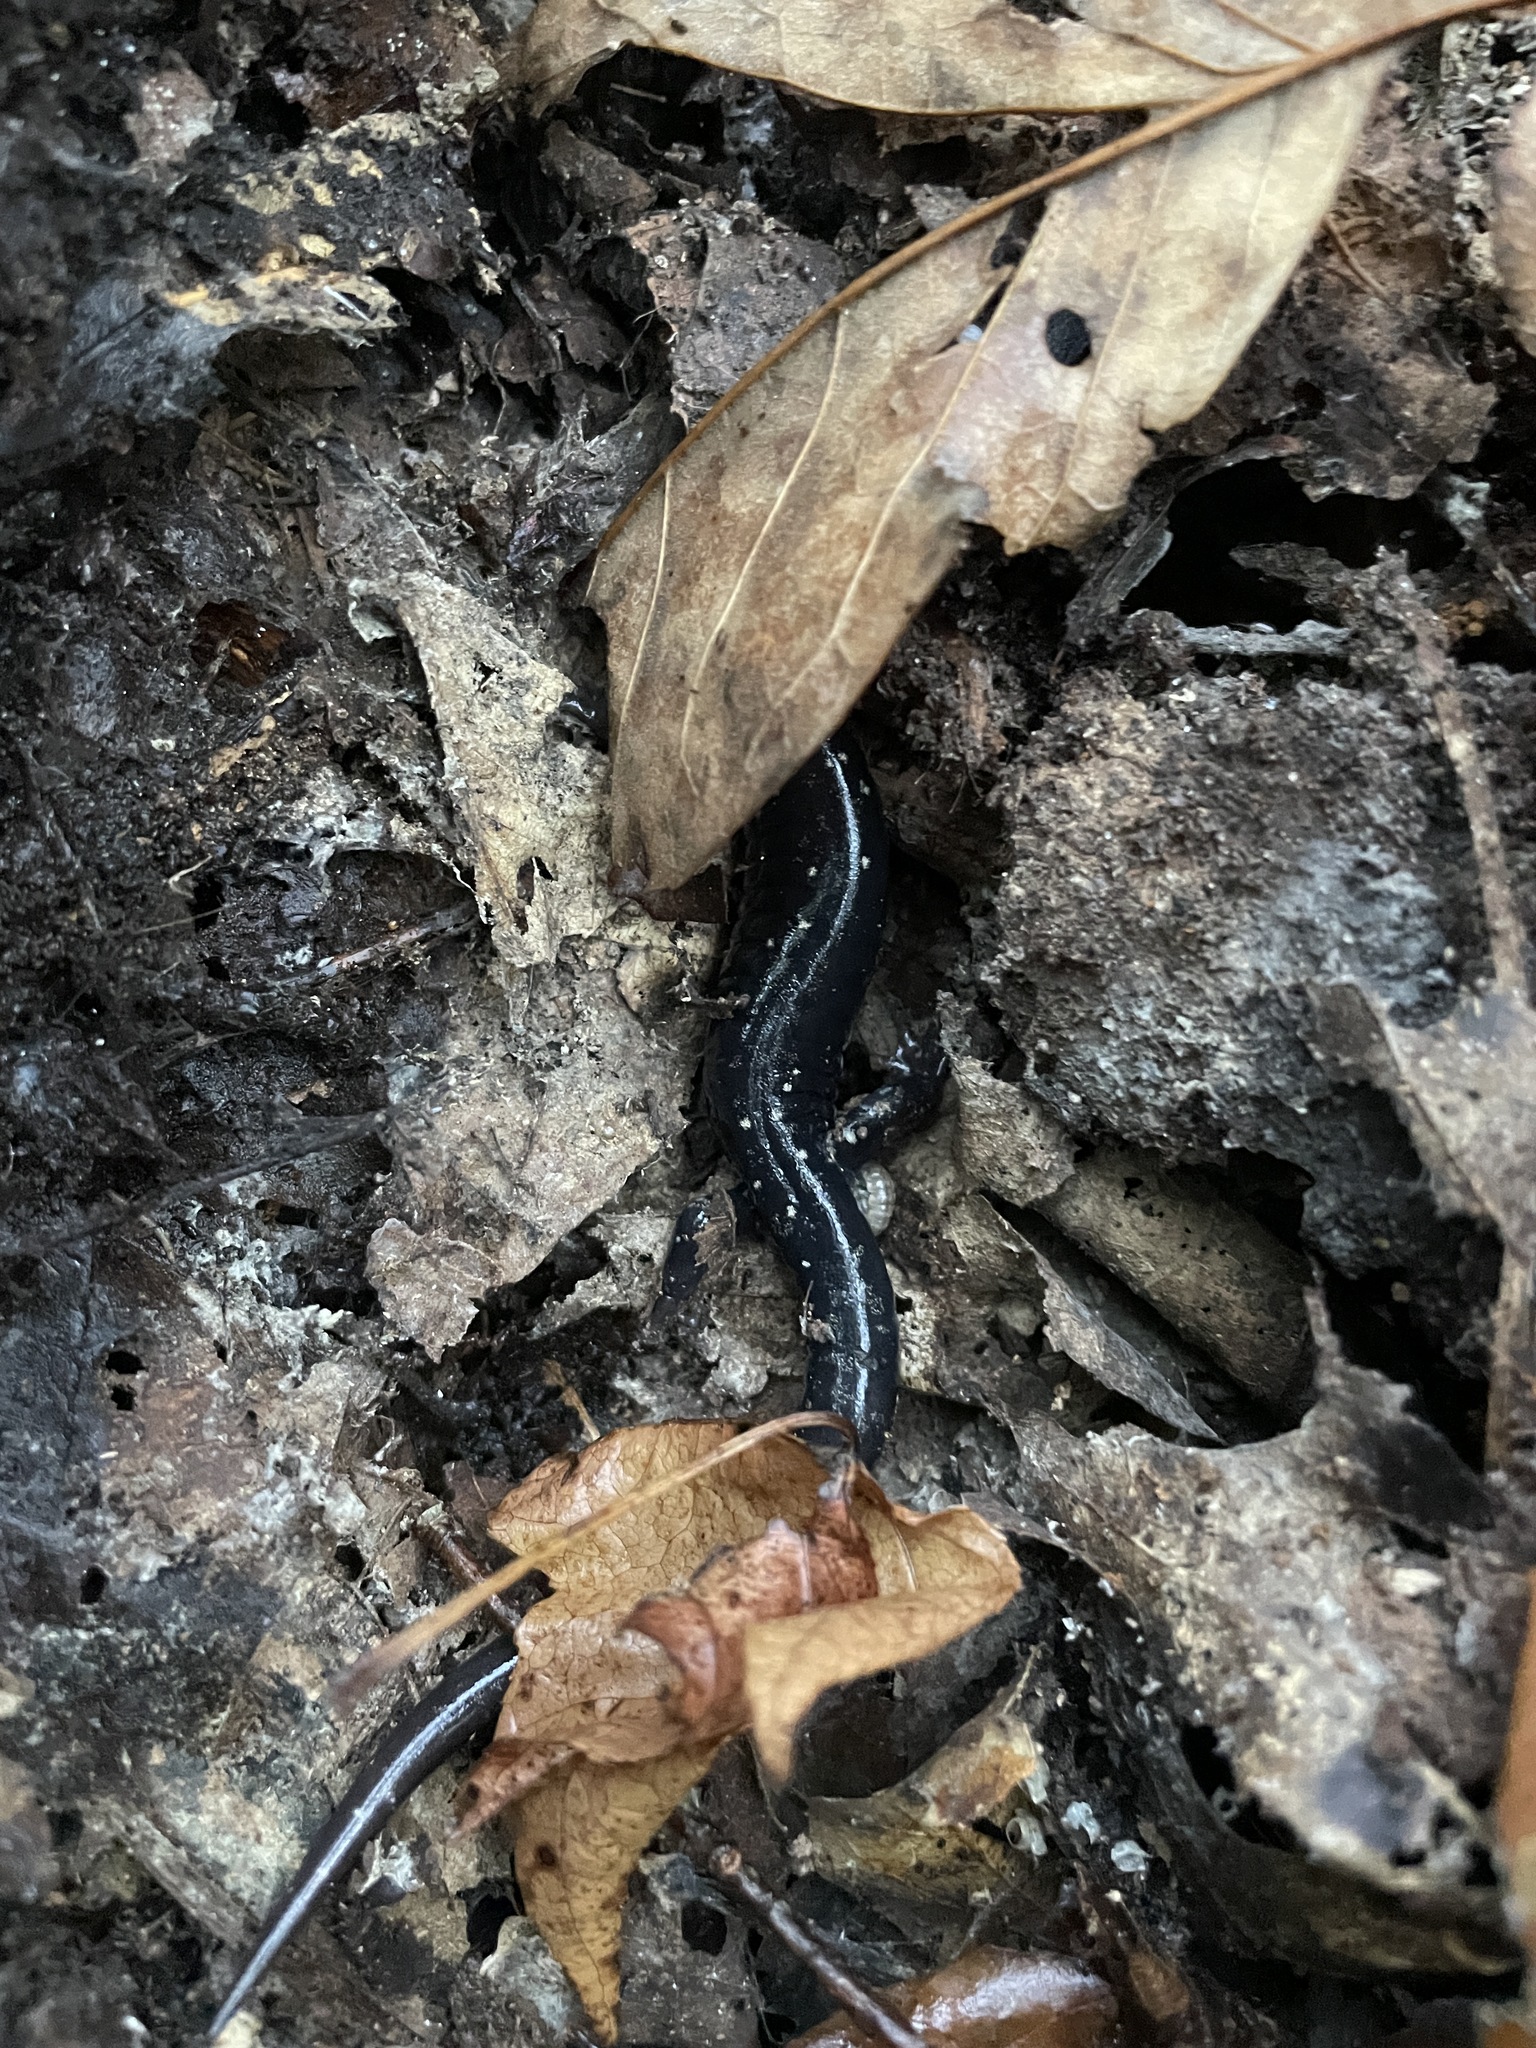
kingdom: Animalia
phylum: Chordata
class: Amphibia
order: Caudata
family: Plethodontidae
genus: Plethodon
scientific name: Plethodon mississippi
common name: Mississippi slimy salamander
